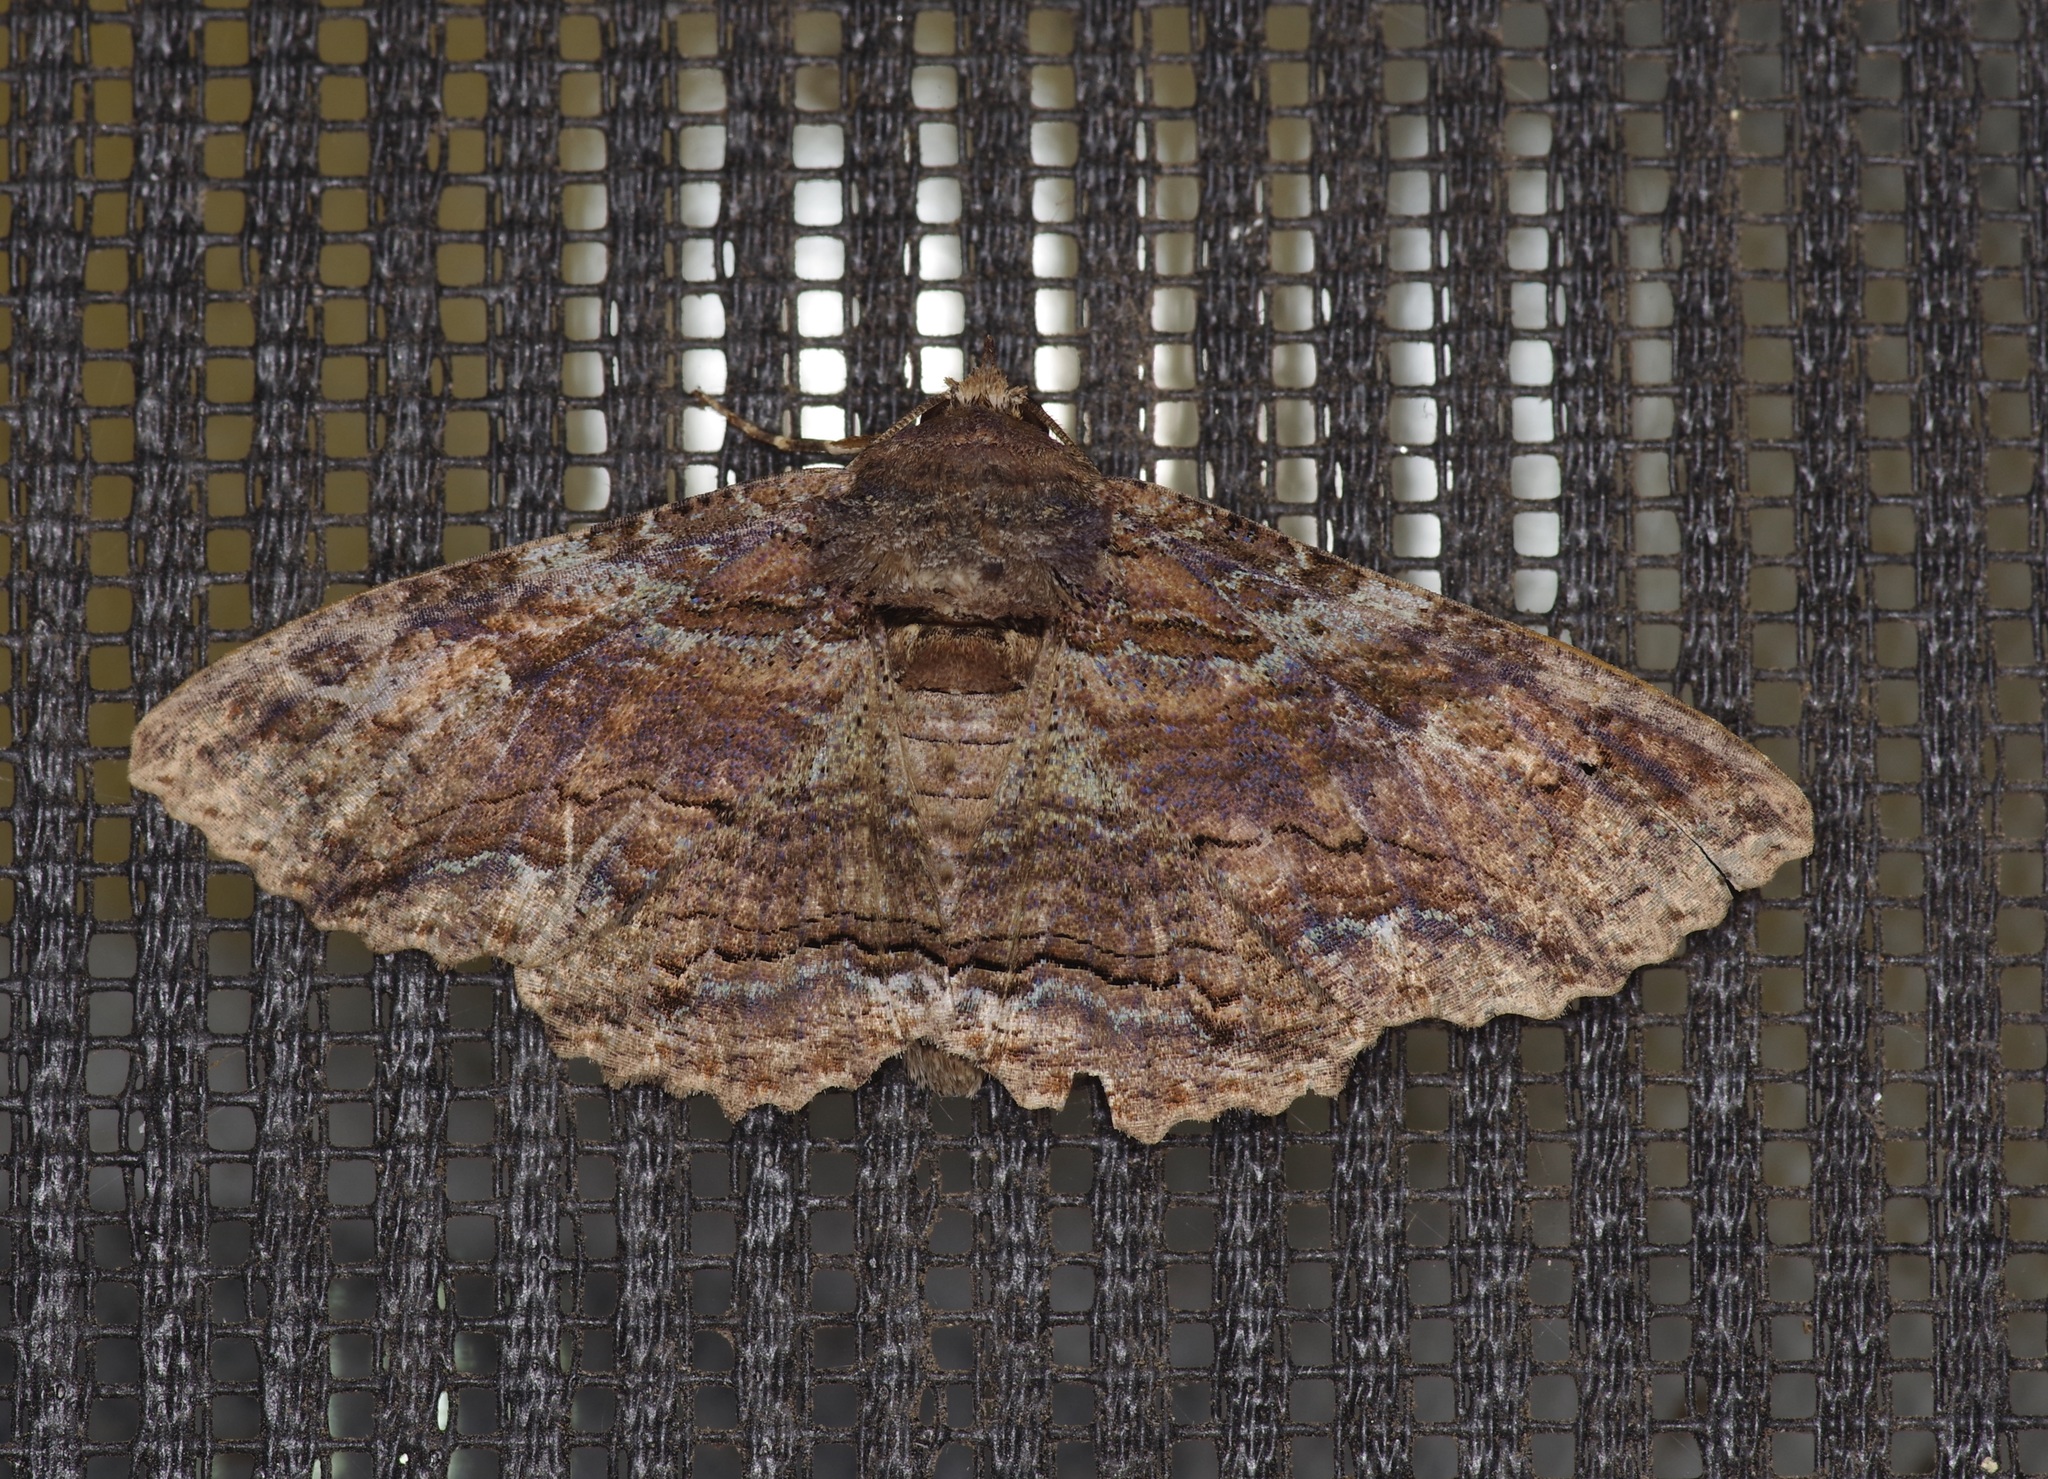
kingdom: Animalia
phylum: Arthropoda
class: Insecta
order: Lepidoptera
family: Erebidae
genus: Zale
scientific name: Zale lunata
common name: Lunate zale moth
